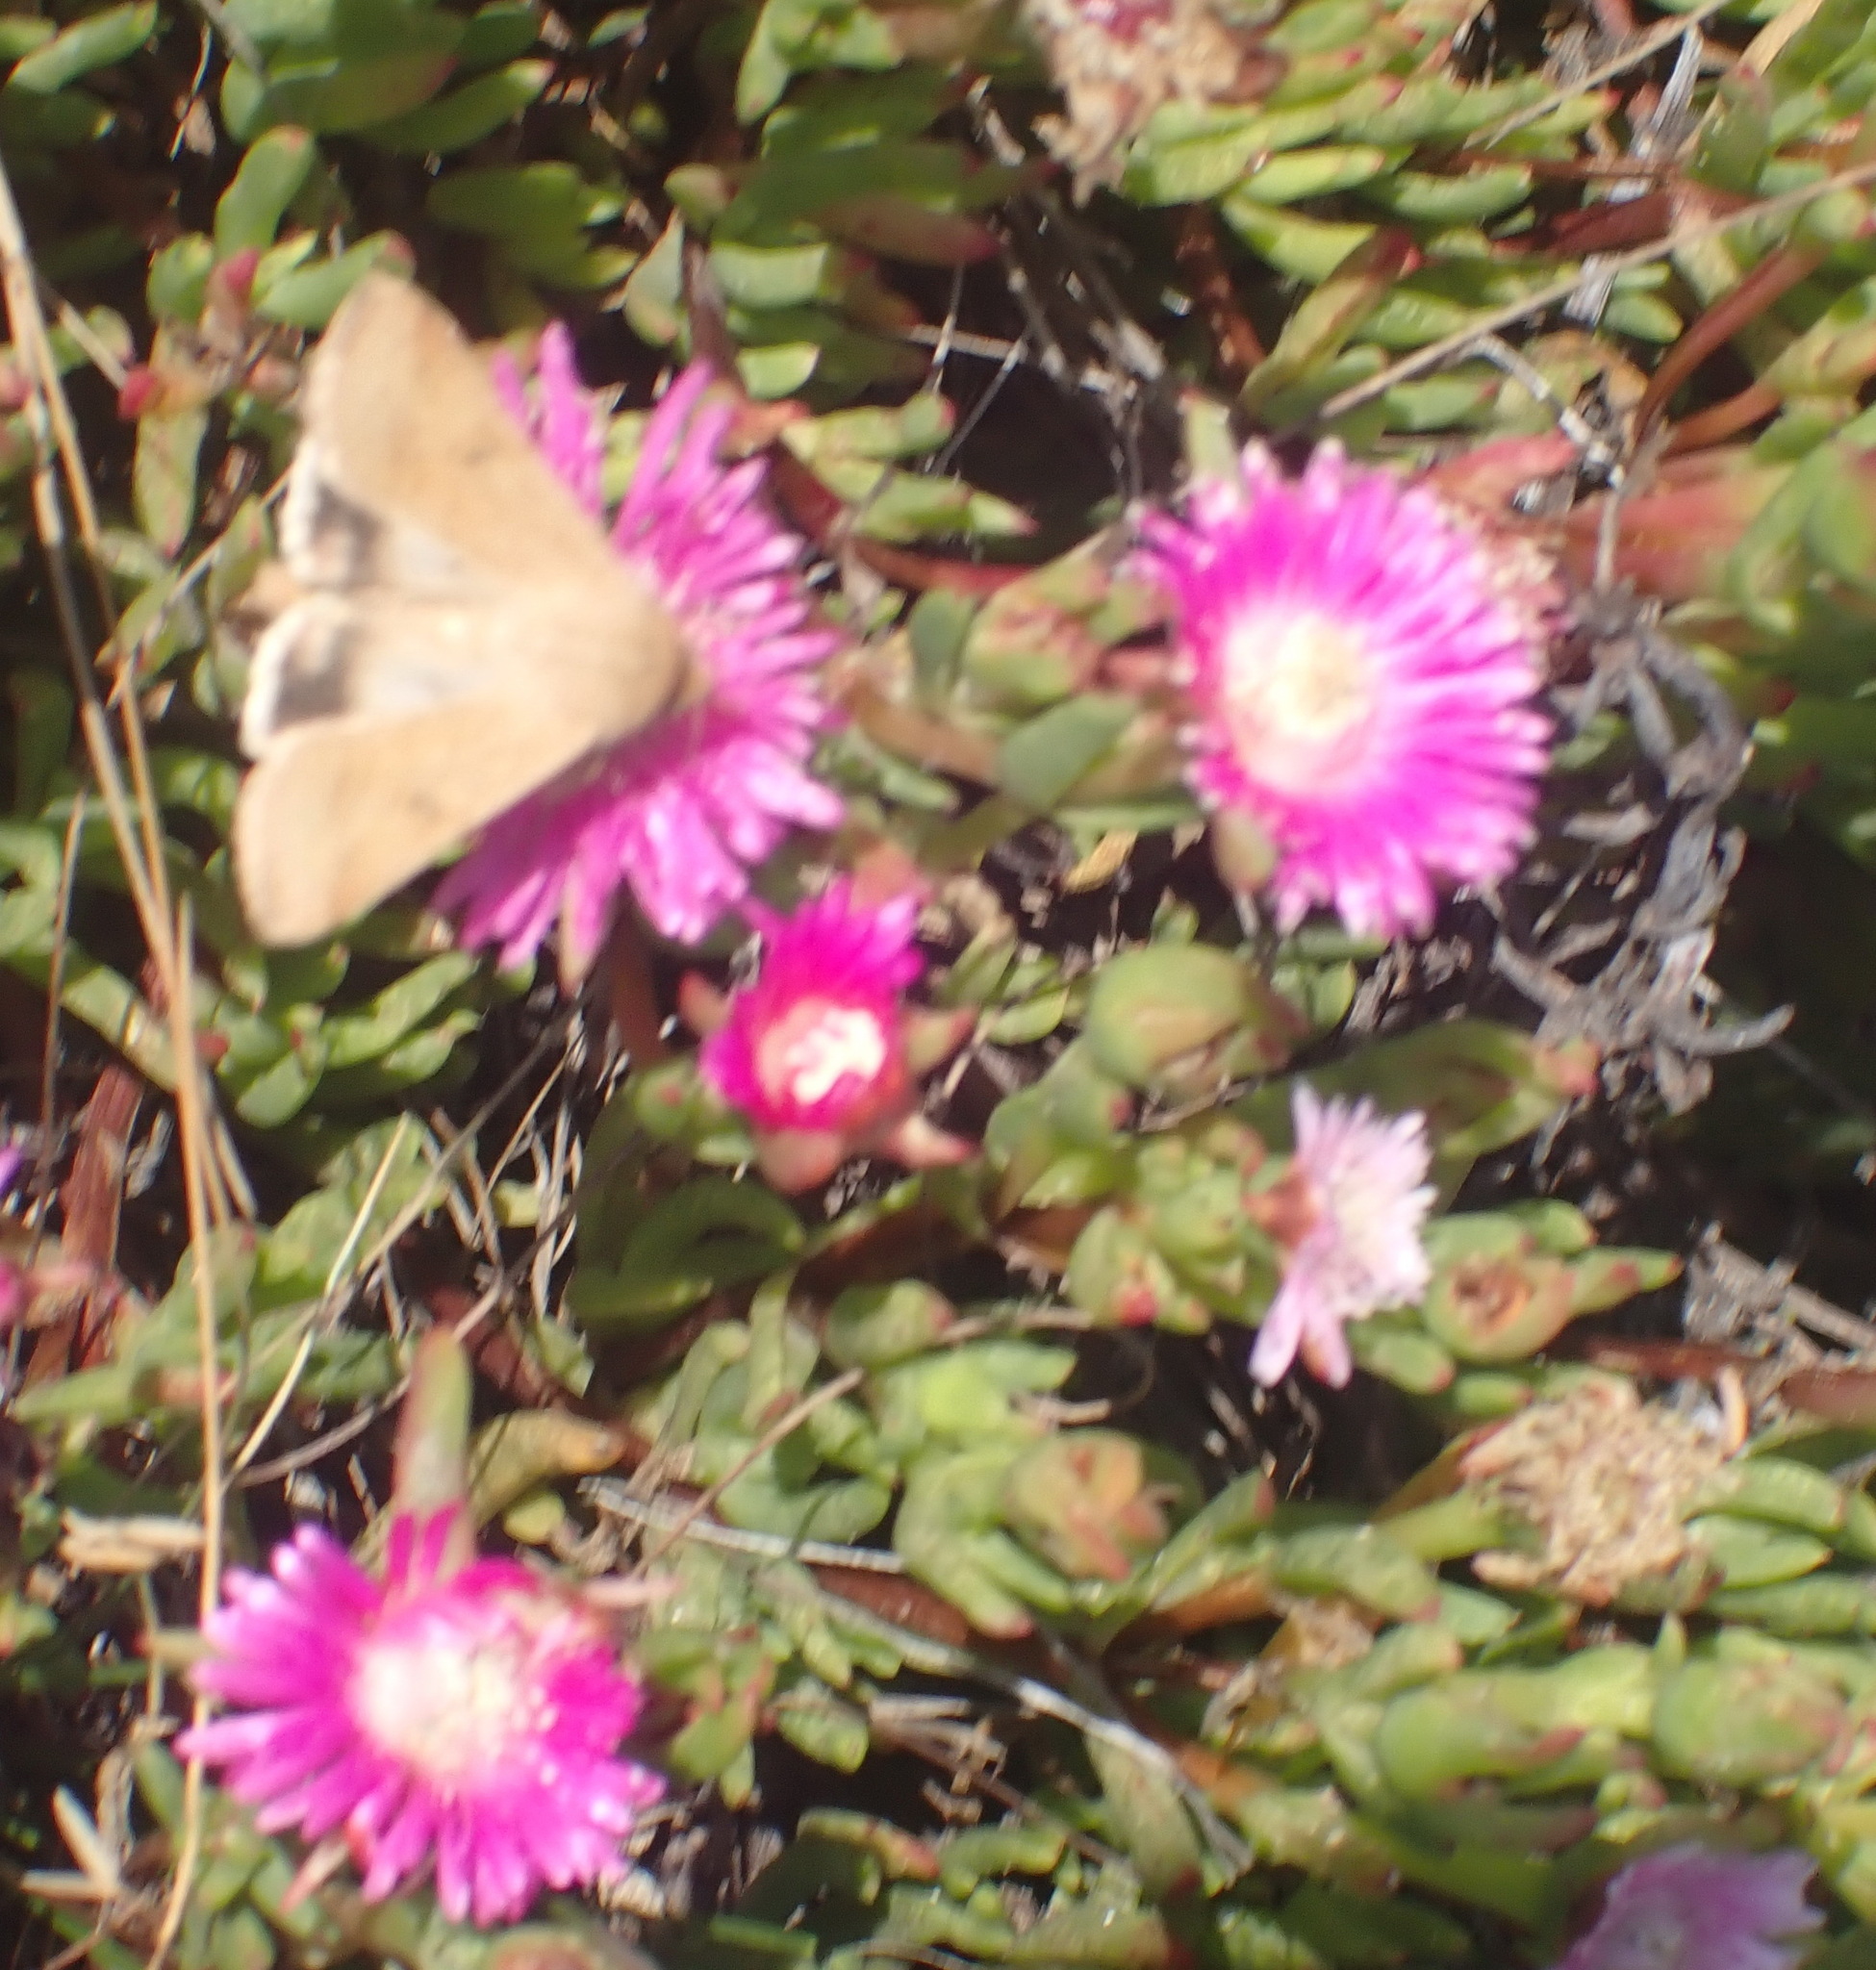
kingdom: Plantae
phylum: Tracheophyta
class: Magnoliopsida
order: Caryophyllales
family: Aizoaceae
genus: Ruschia
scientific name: Ruschia duthiae
